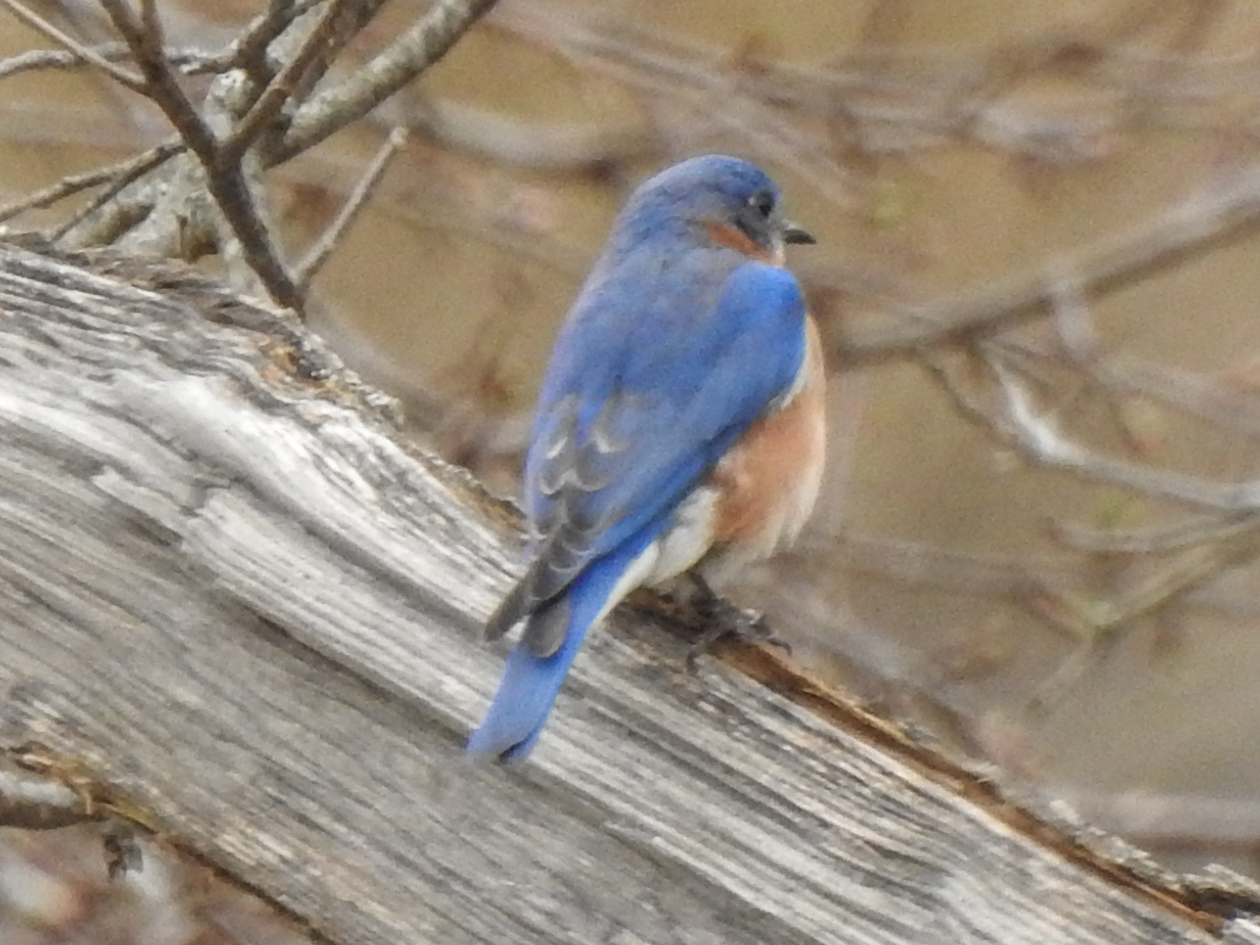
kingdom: Animalia
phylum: Chordata
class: Aves
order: Passeriformes
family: Turdidae
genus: Sialia
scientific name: Sialia sialis
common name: Eastern bluebird
